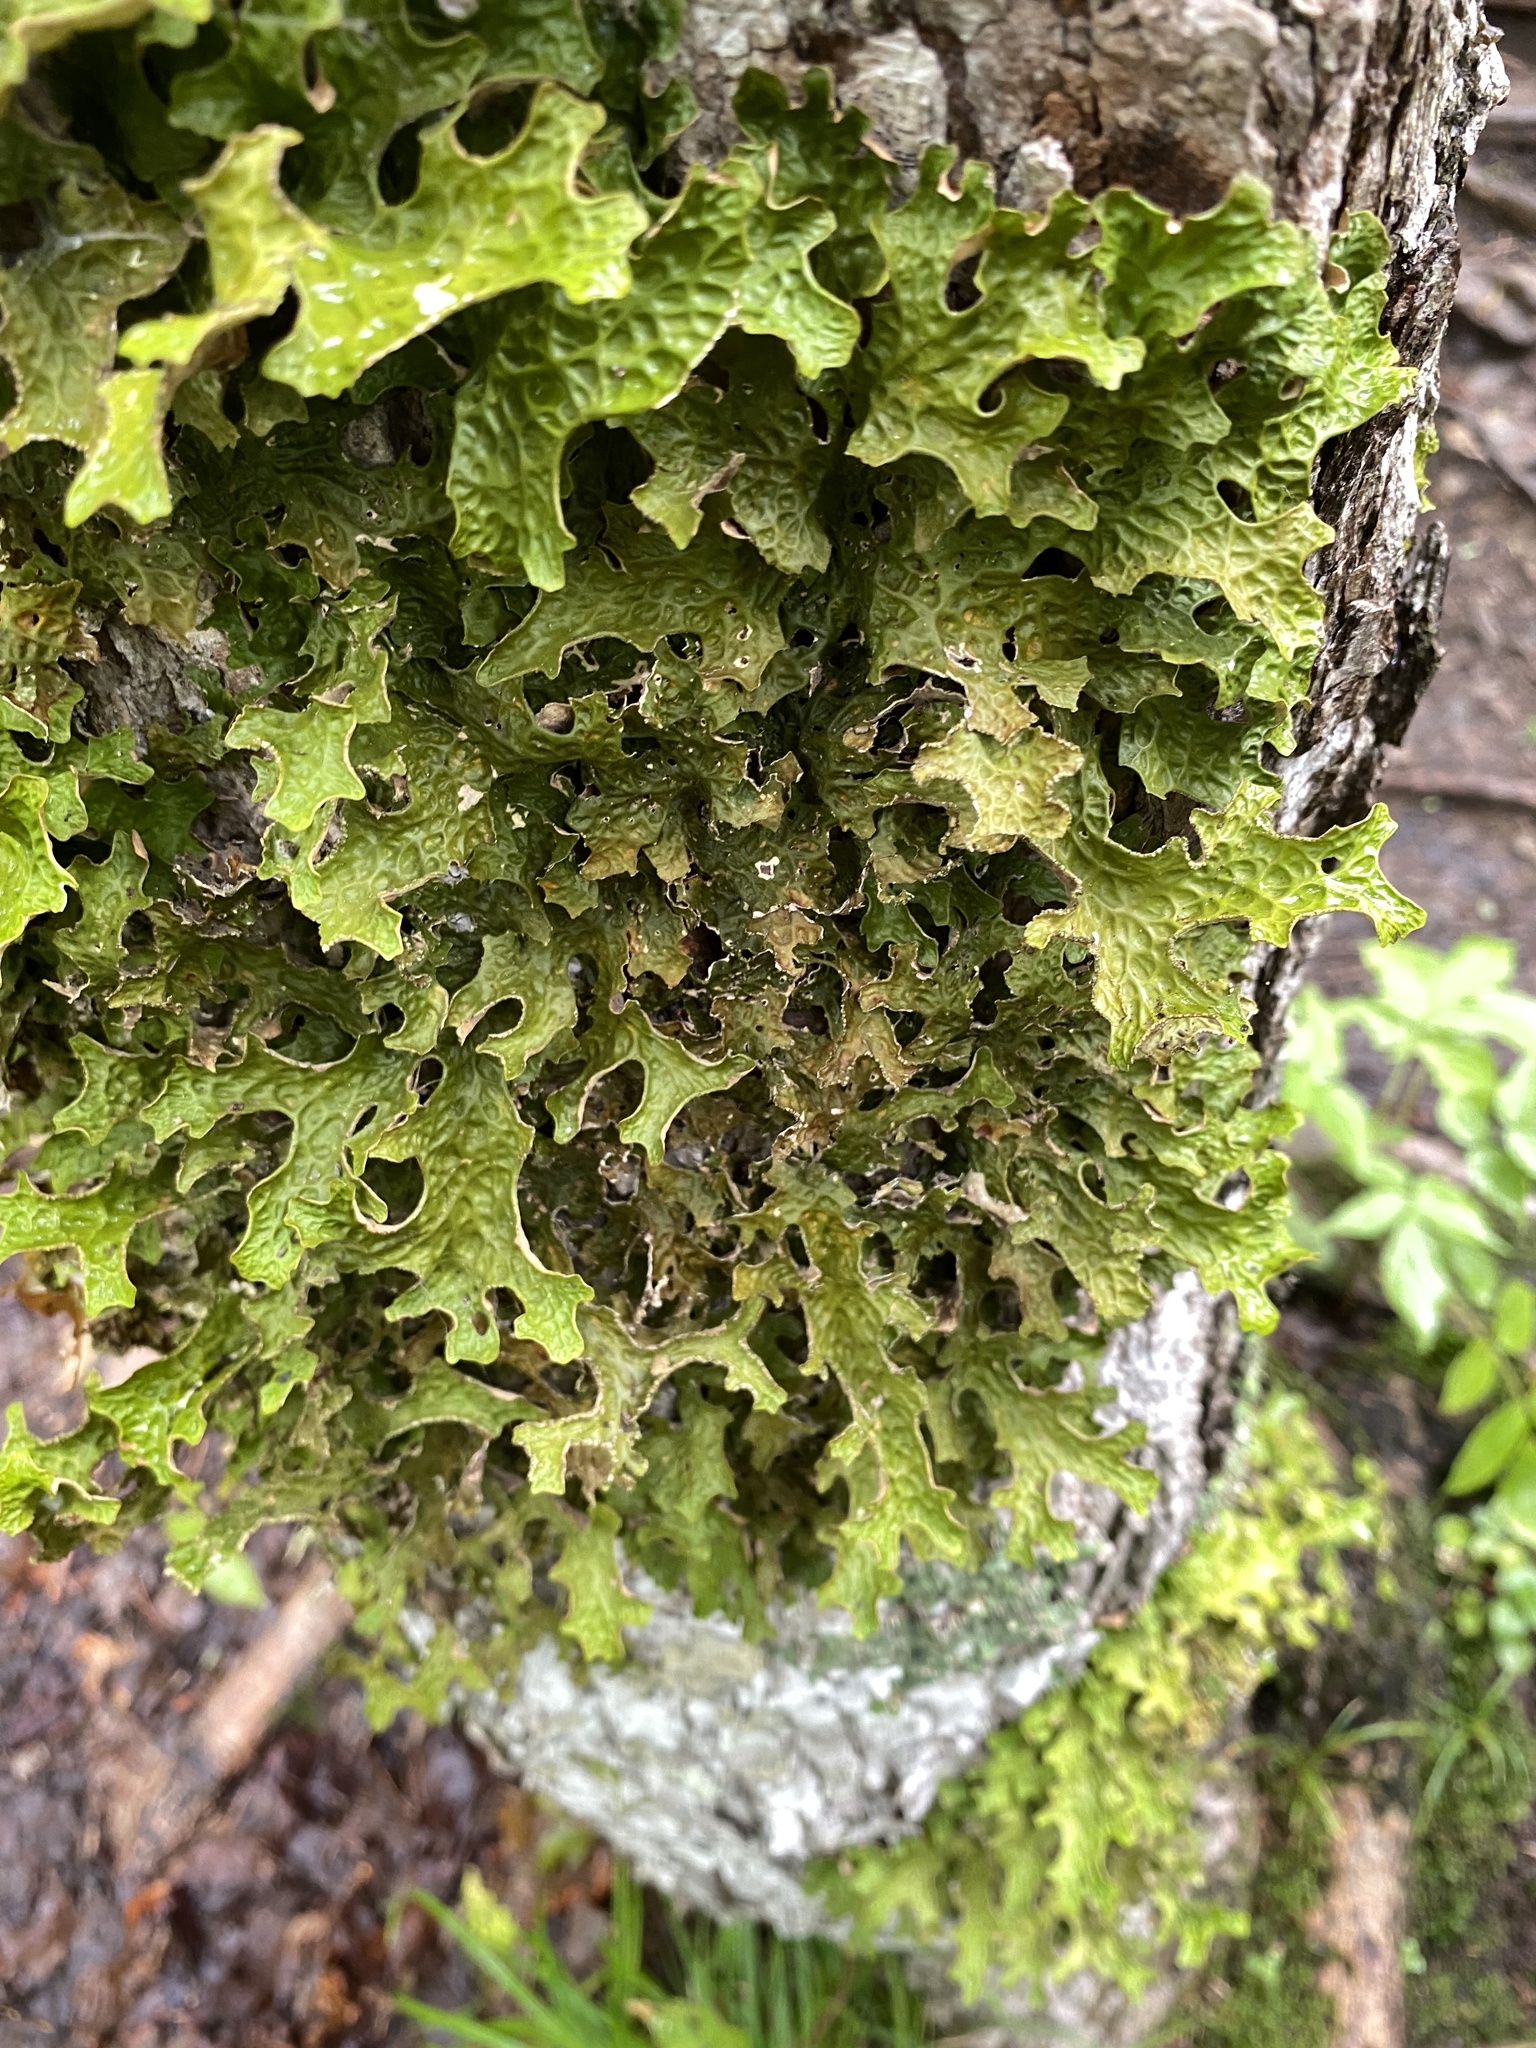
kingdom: Fungi
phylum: Ascomycota
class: Lecanoromycetes
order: Peltigerales
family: Lobariaceae
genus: Lobaria
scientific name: Lobaria pulmonaria
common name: Lungwort
